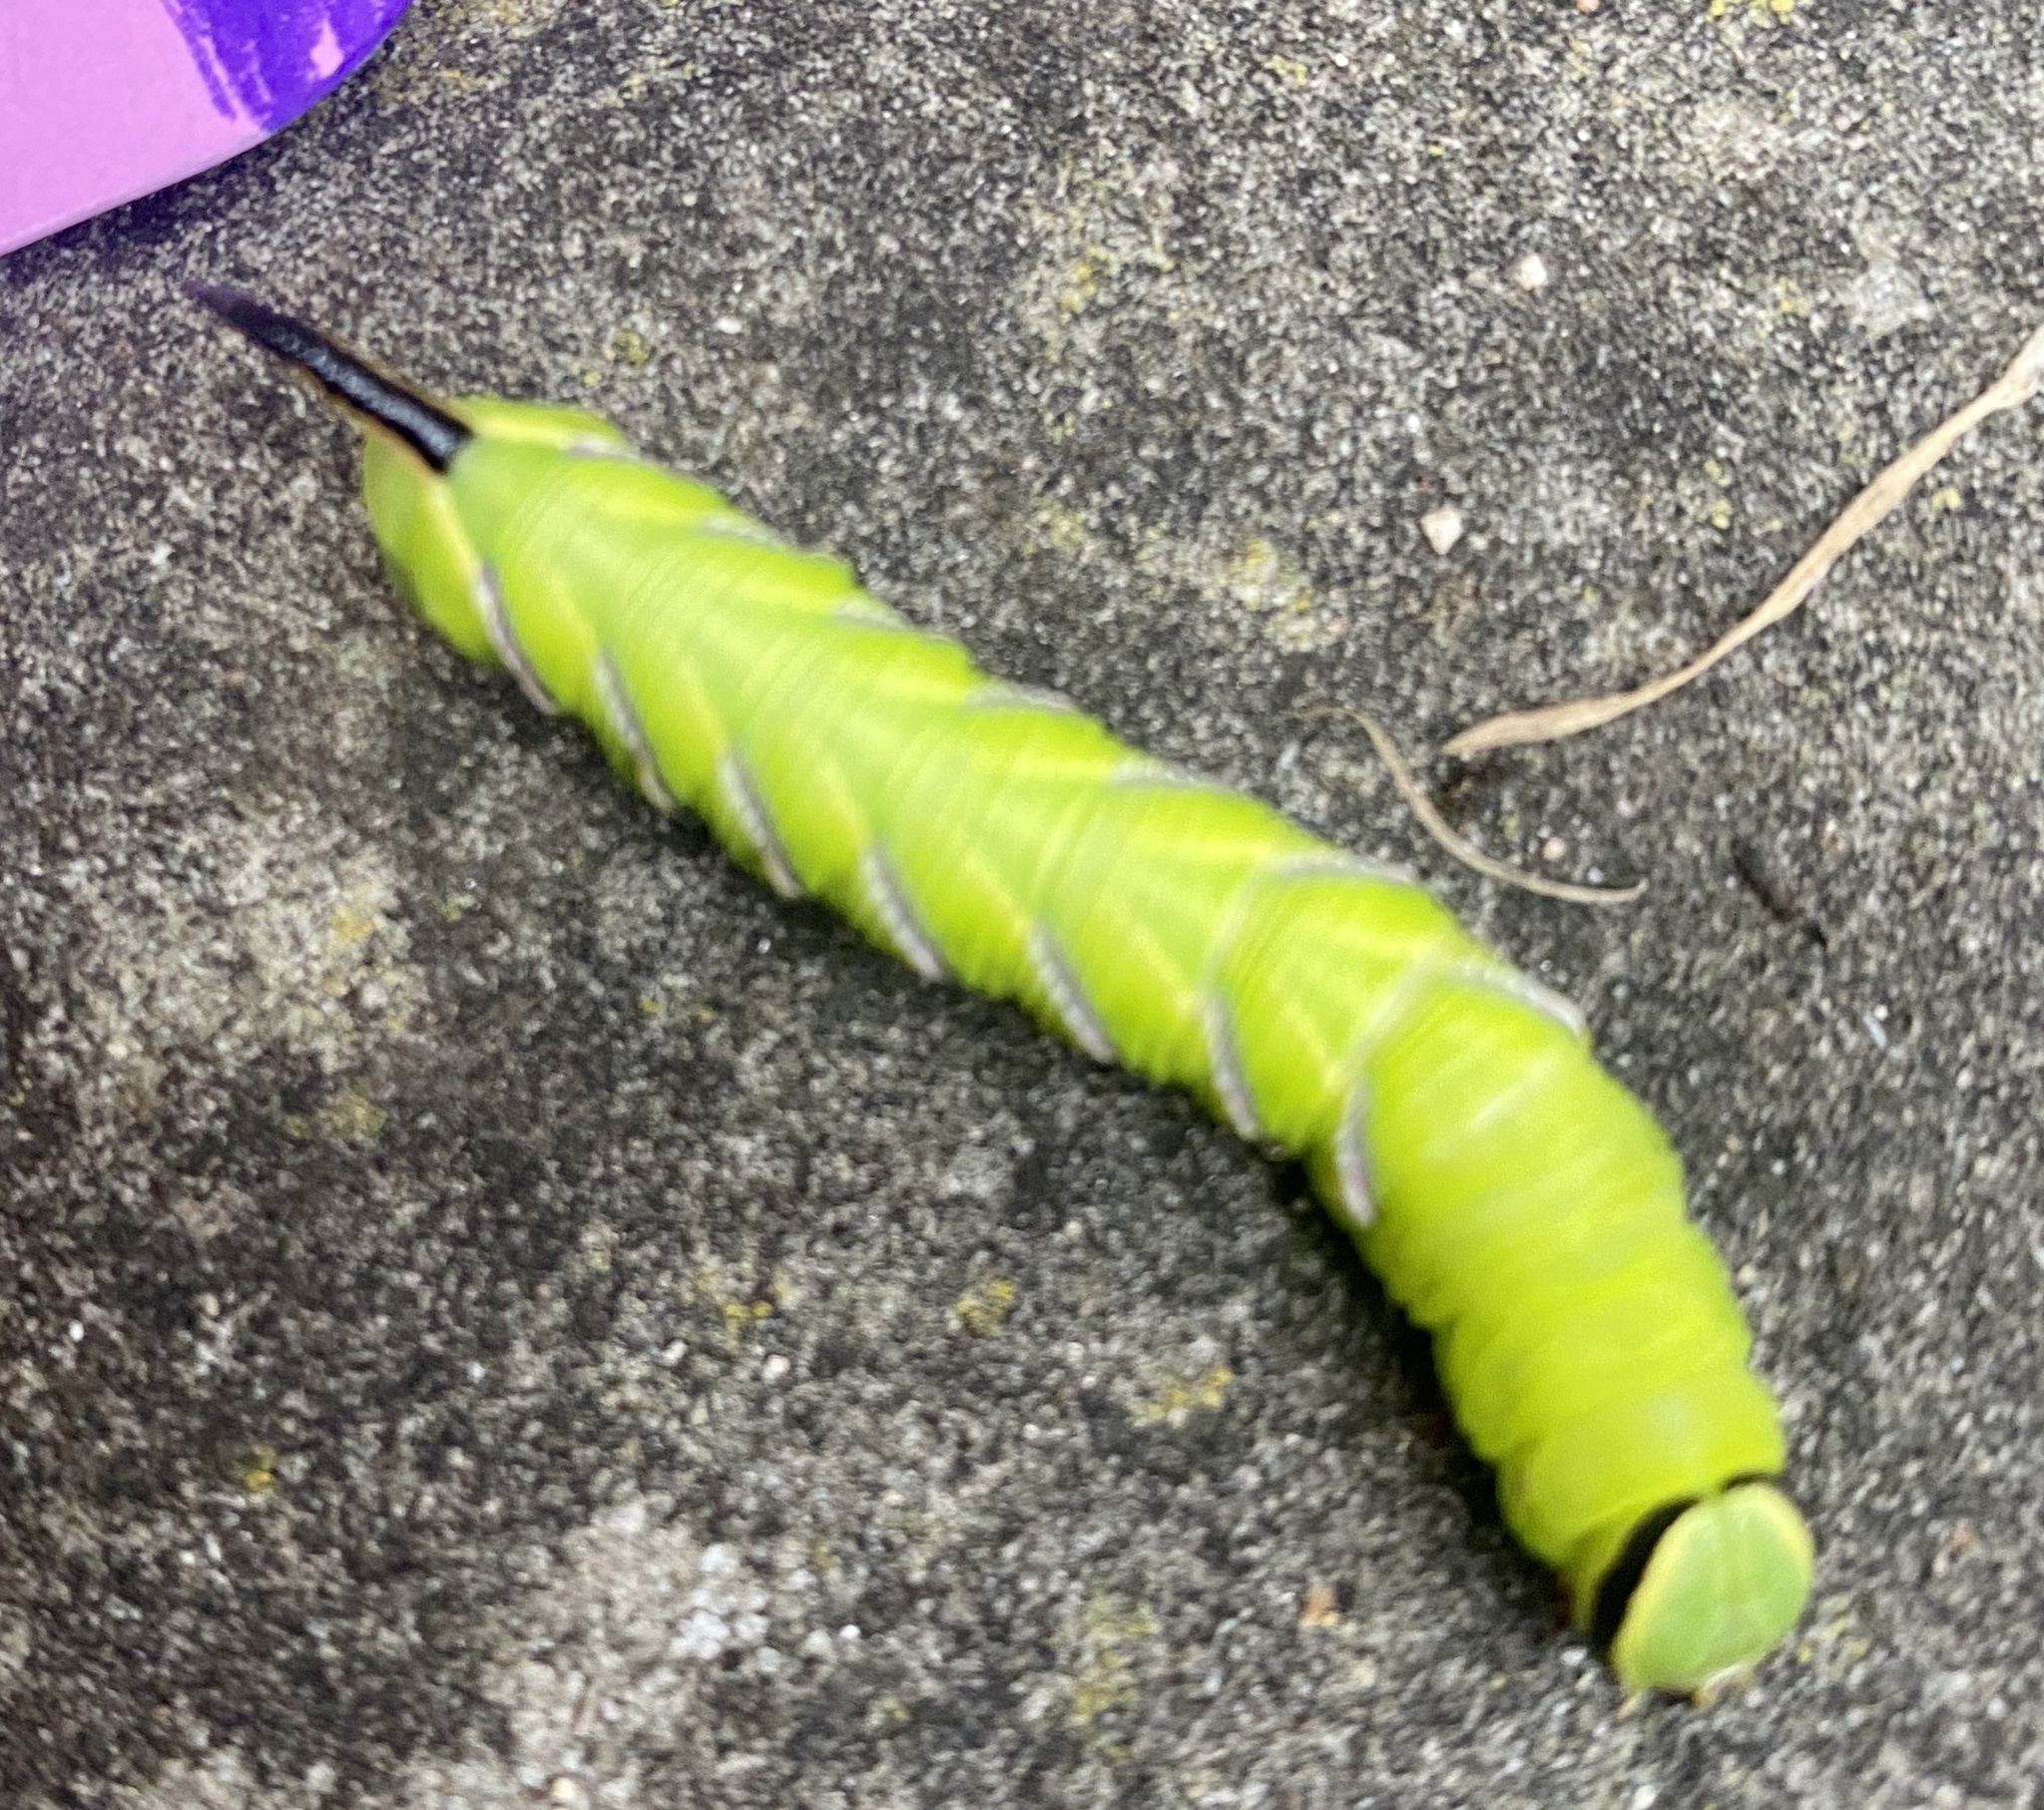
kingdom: Animalia
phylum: Arthropoda
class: Insecta
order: Lepidoptera
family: Sphingidae
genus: Sphinx
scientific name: Sphinx ligustri
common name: Privet hawk-moth
